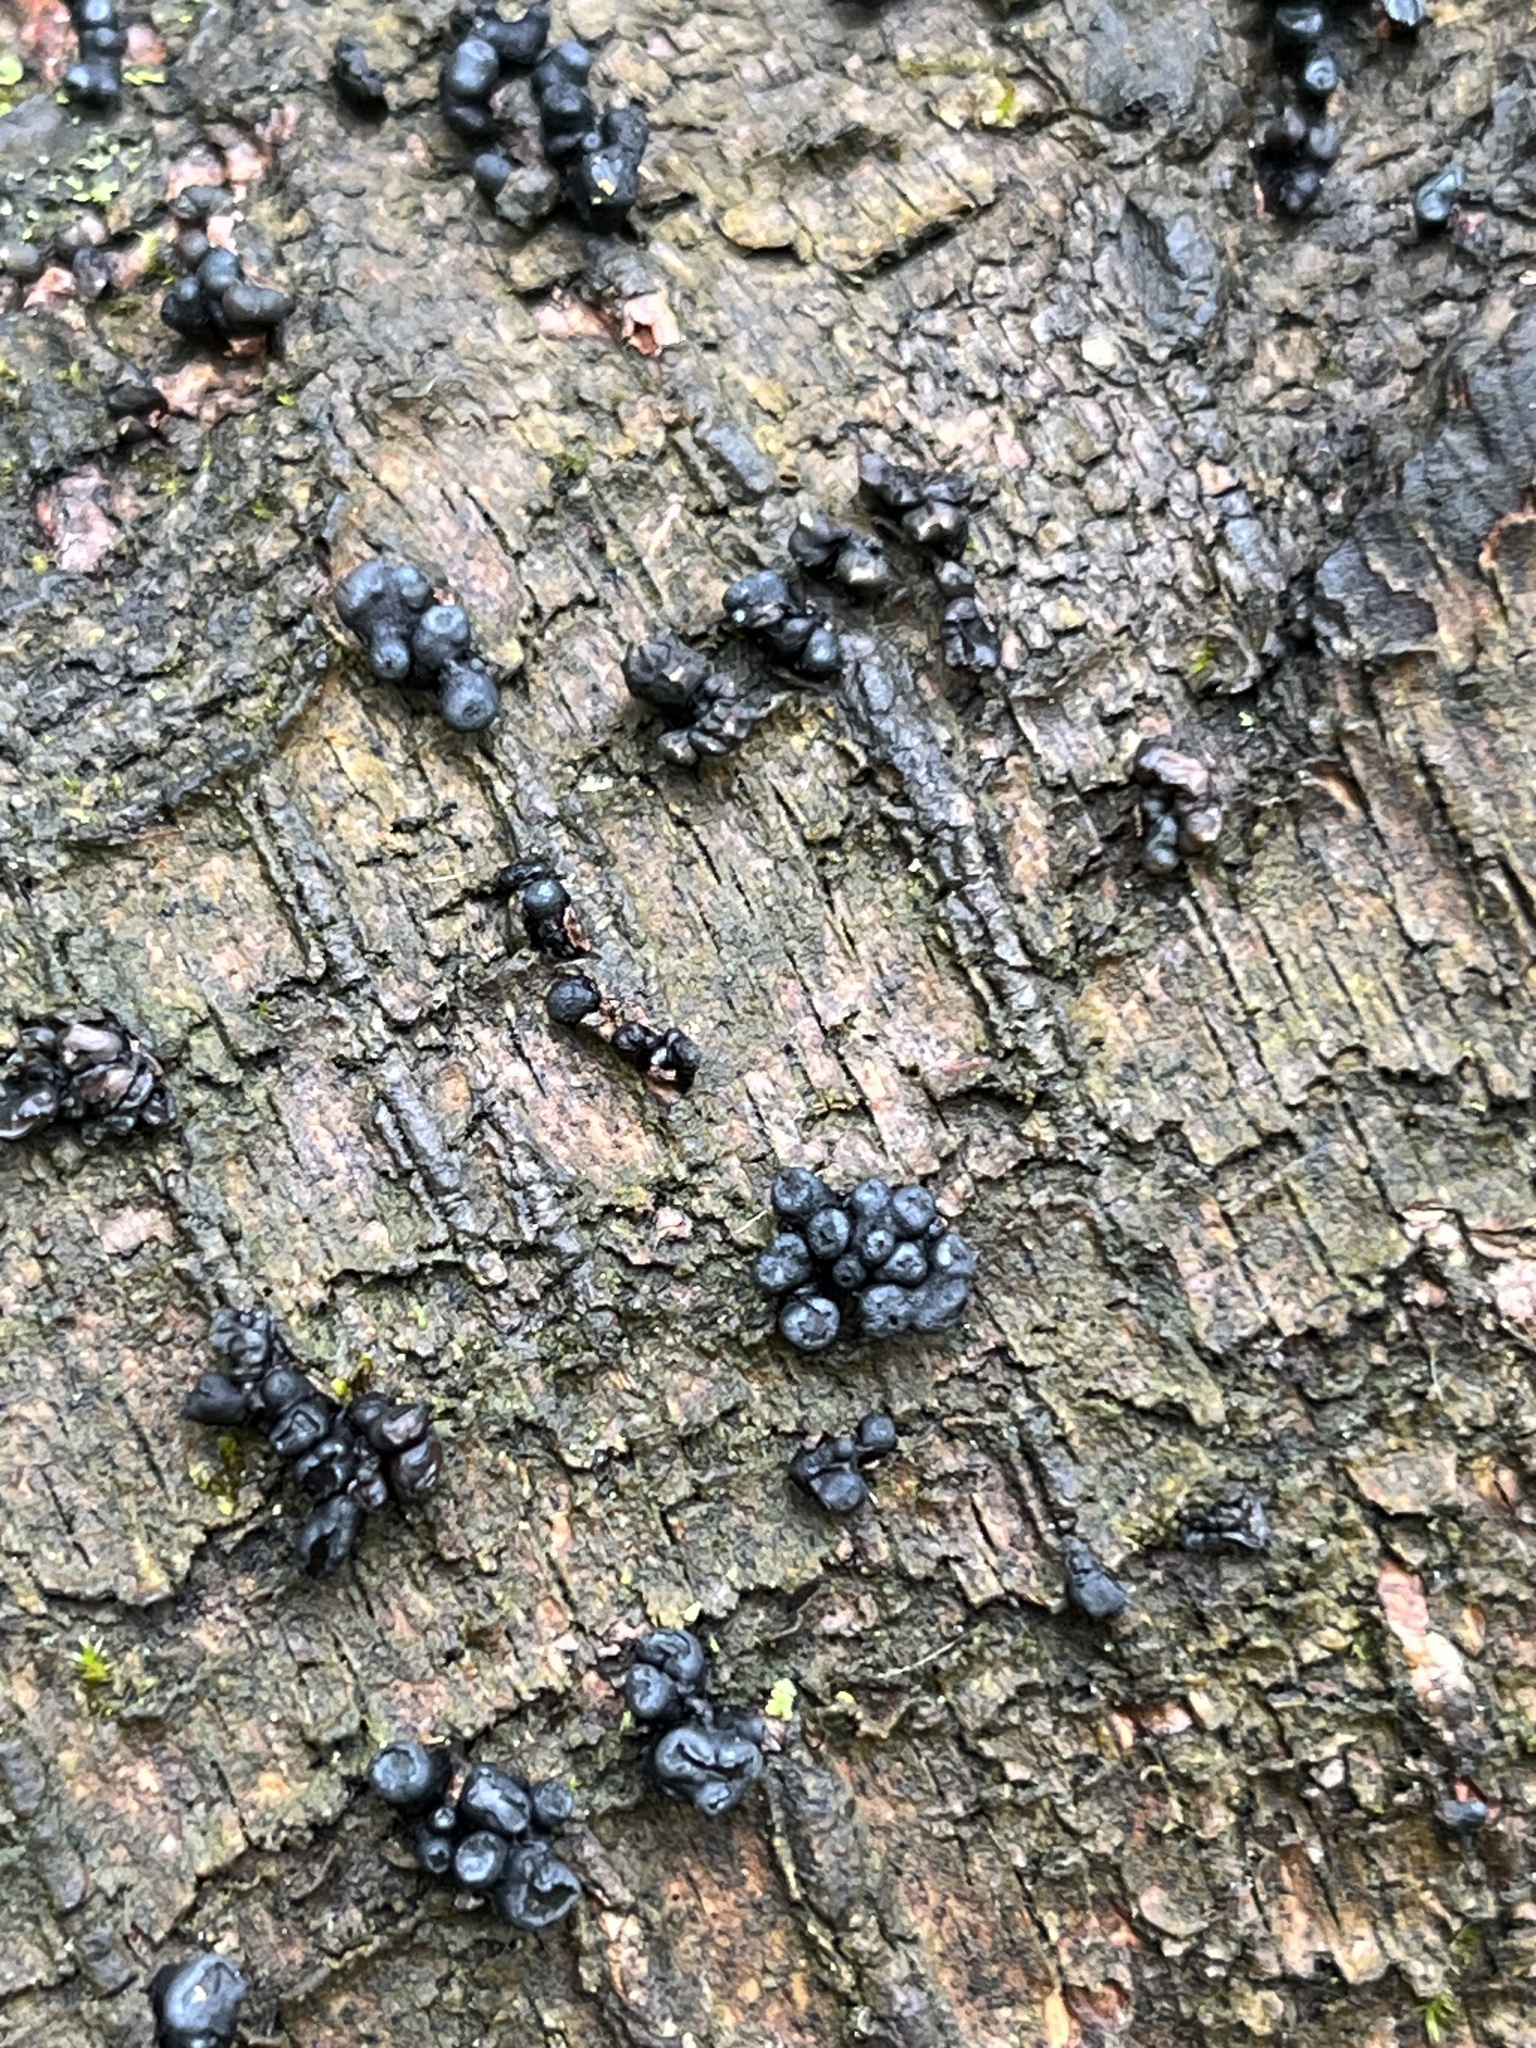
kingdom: Fungi
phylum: Ascomycota
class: Leotiomycetes
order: Leotiales
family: Tympanidaceae
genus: Tympanis
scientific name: Tympanis alnea
